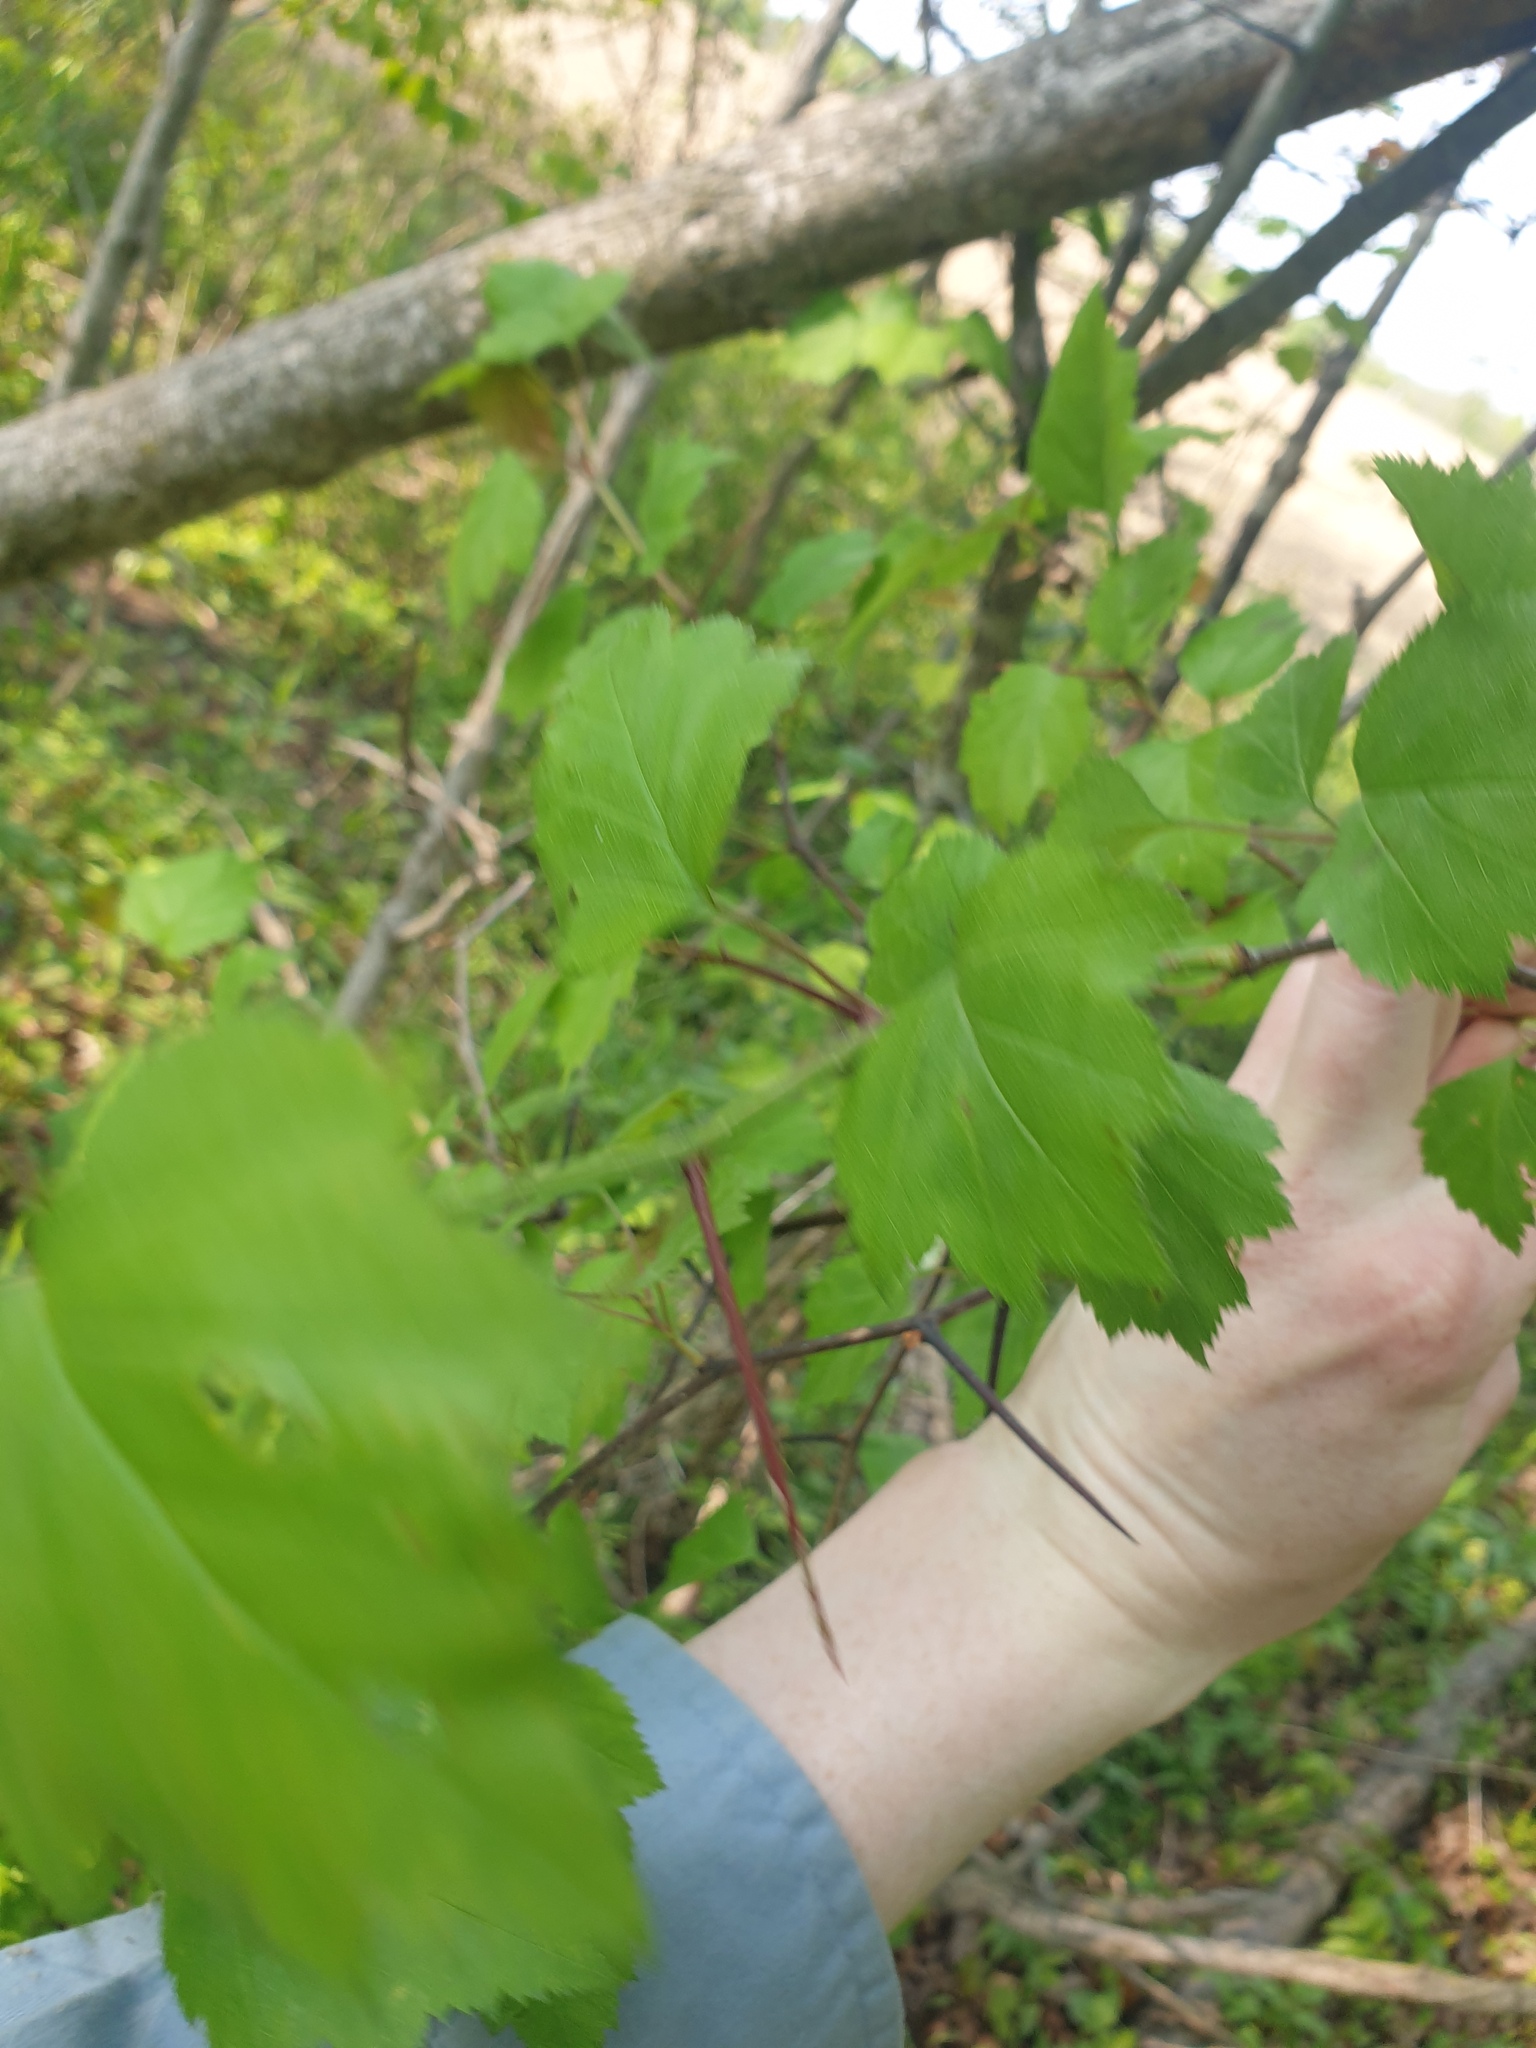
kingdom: Plantae
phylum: Tracheophyta
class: Magnoliopsida
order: Rosales
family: Rosaceae
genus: Crataegus
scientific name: Crataegus pruinosa
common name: Waxy-fruit hawthorn
